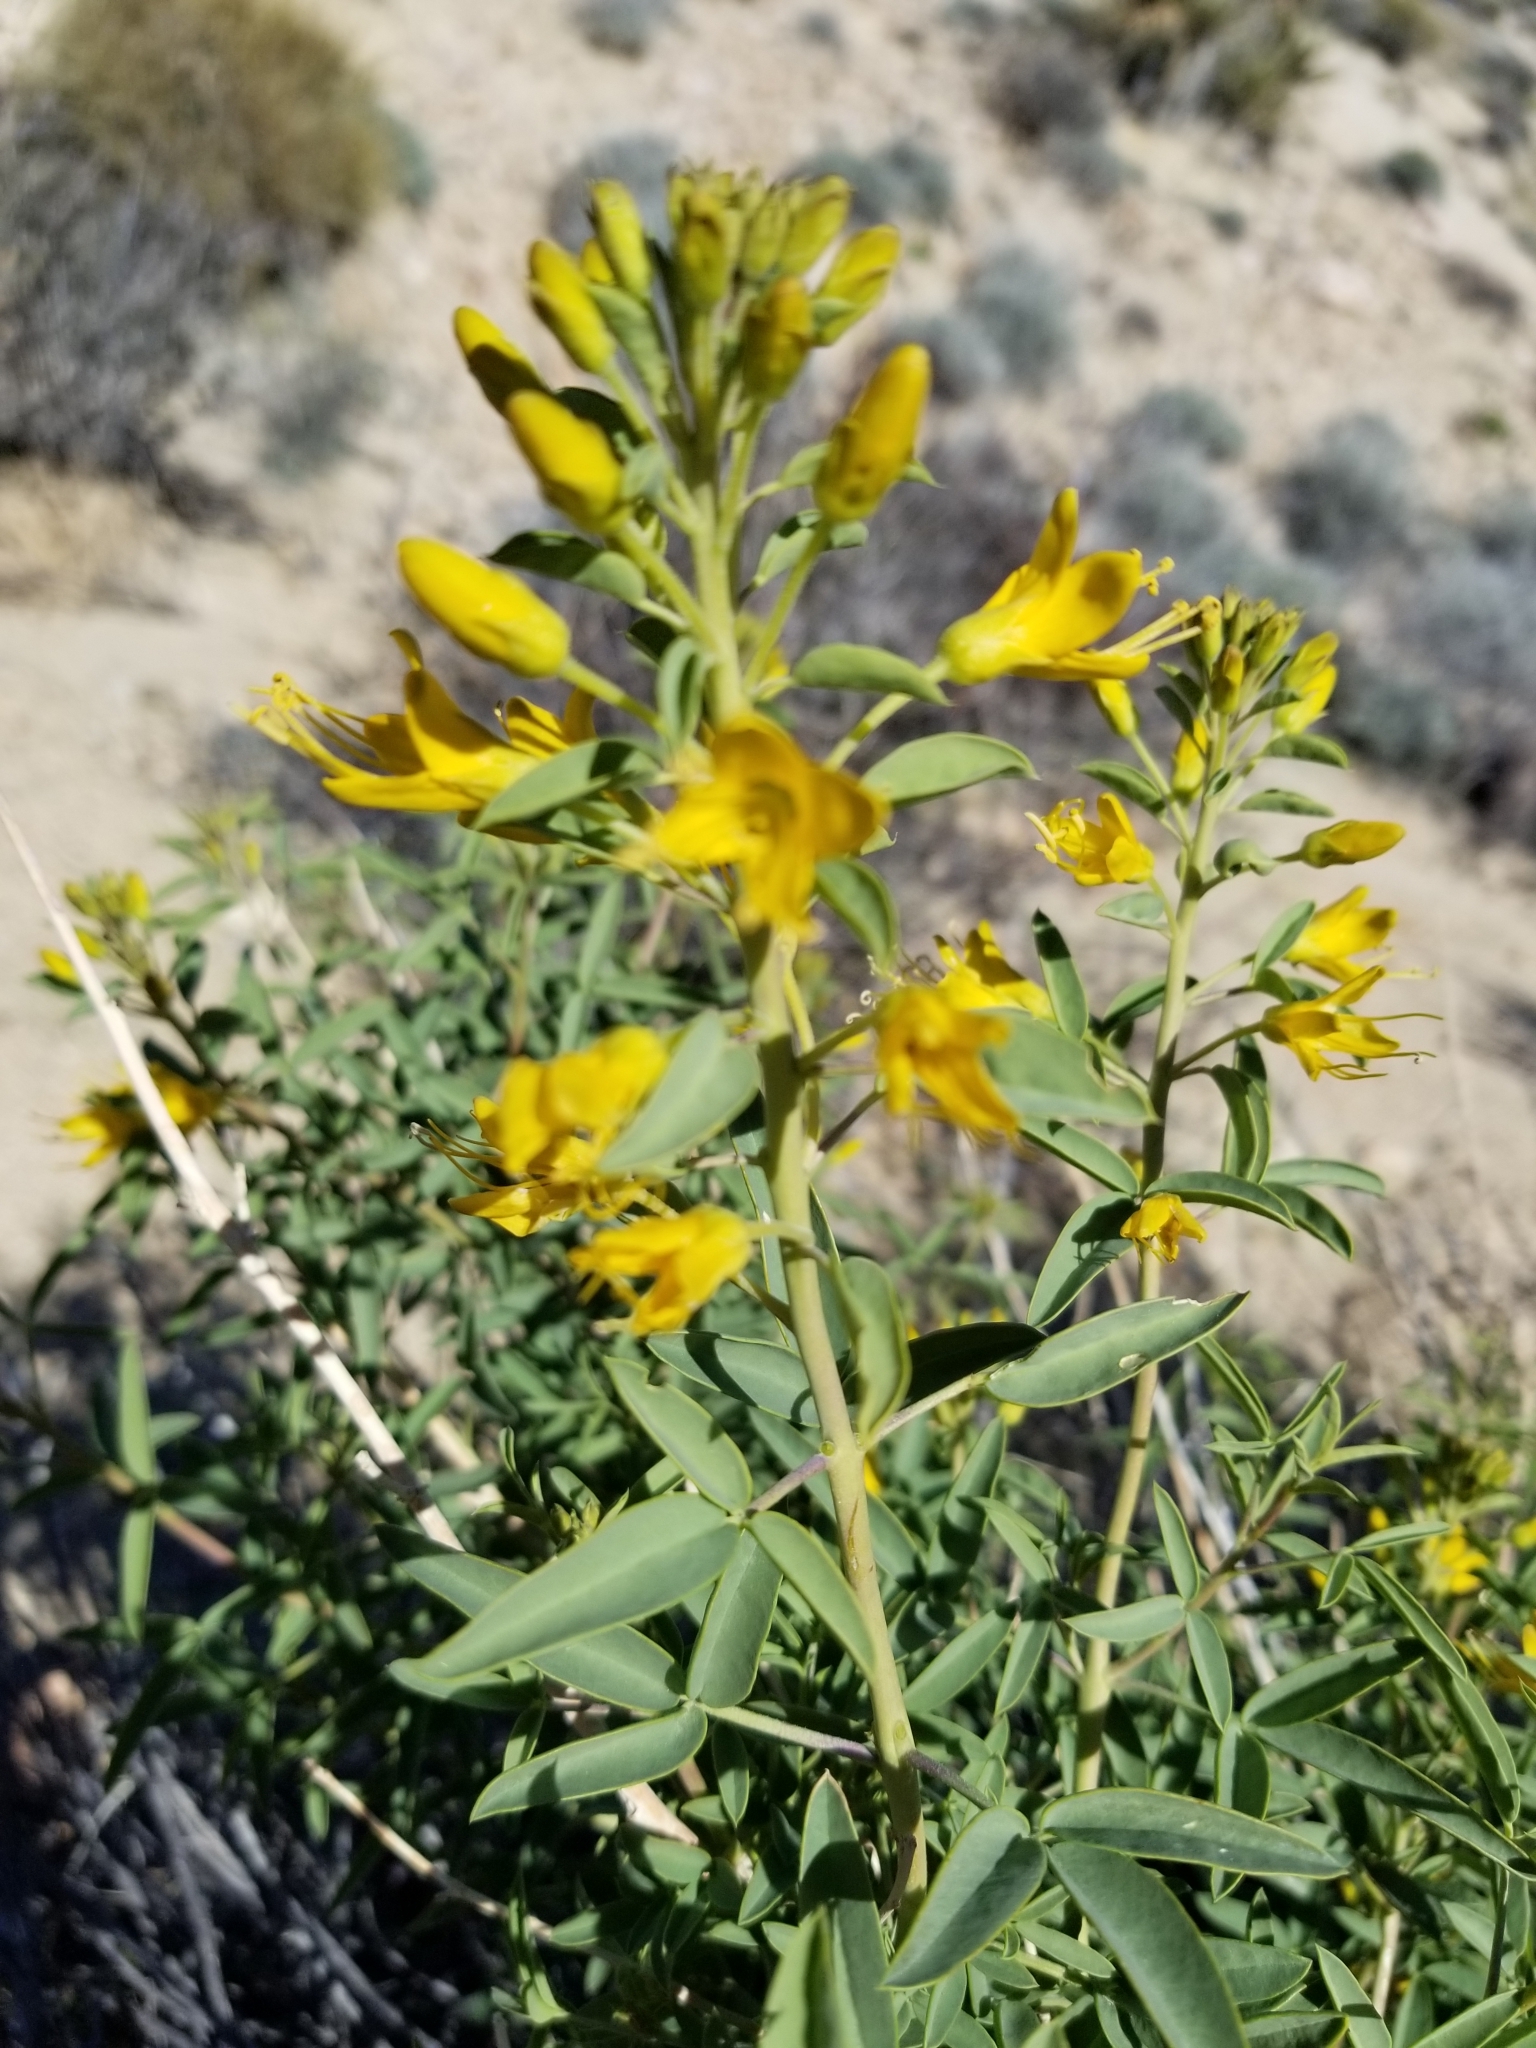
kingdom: Plantae
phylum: Tracheophyta
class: Magnoliopsida
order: Brassicales
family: Cleomaceae
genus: Cleomella
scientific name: Cleomella arborea
